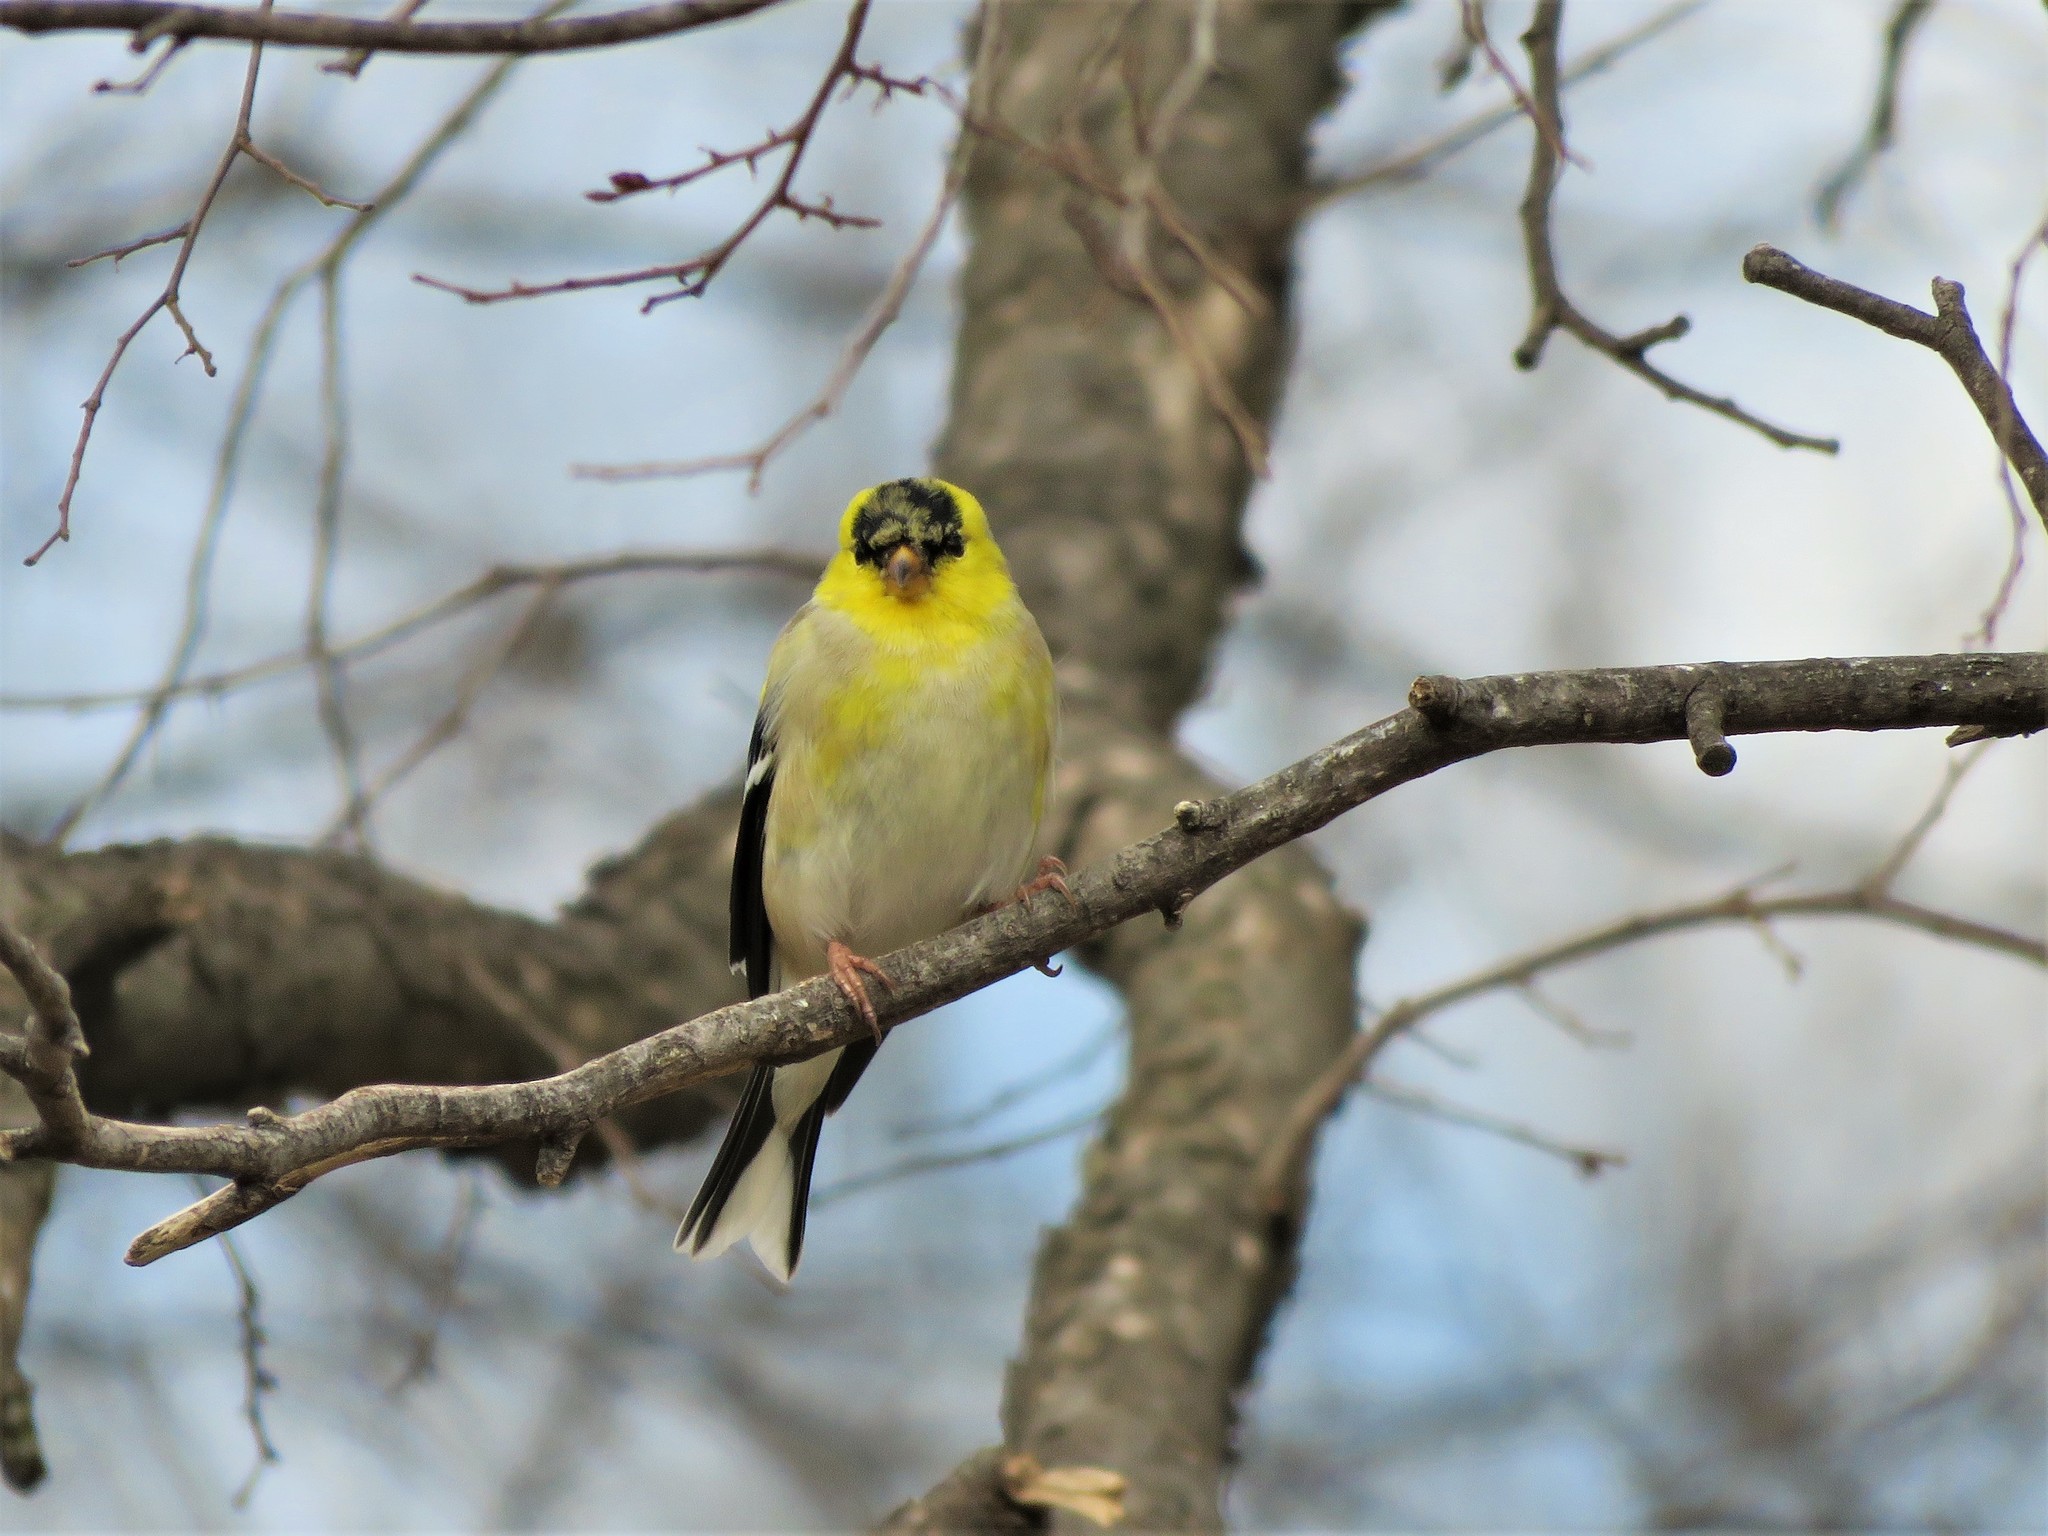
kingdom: Animalia
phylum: Chordata
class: Aves
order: Passeriformes
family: Fringillidae
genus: Spinus
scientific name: Spinus tristis
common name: American goldfinch
